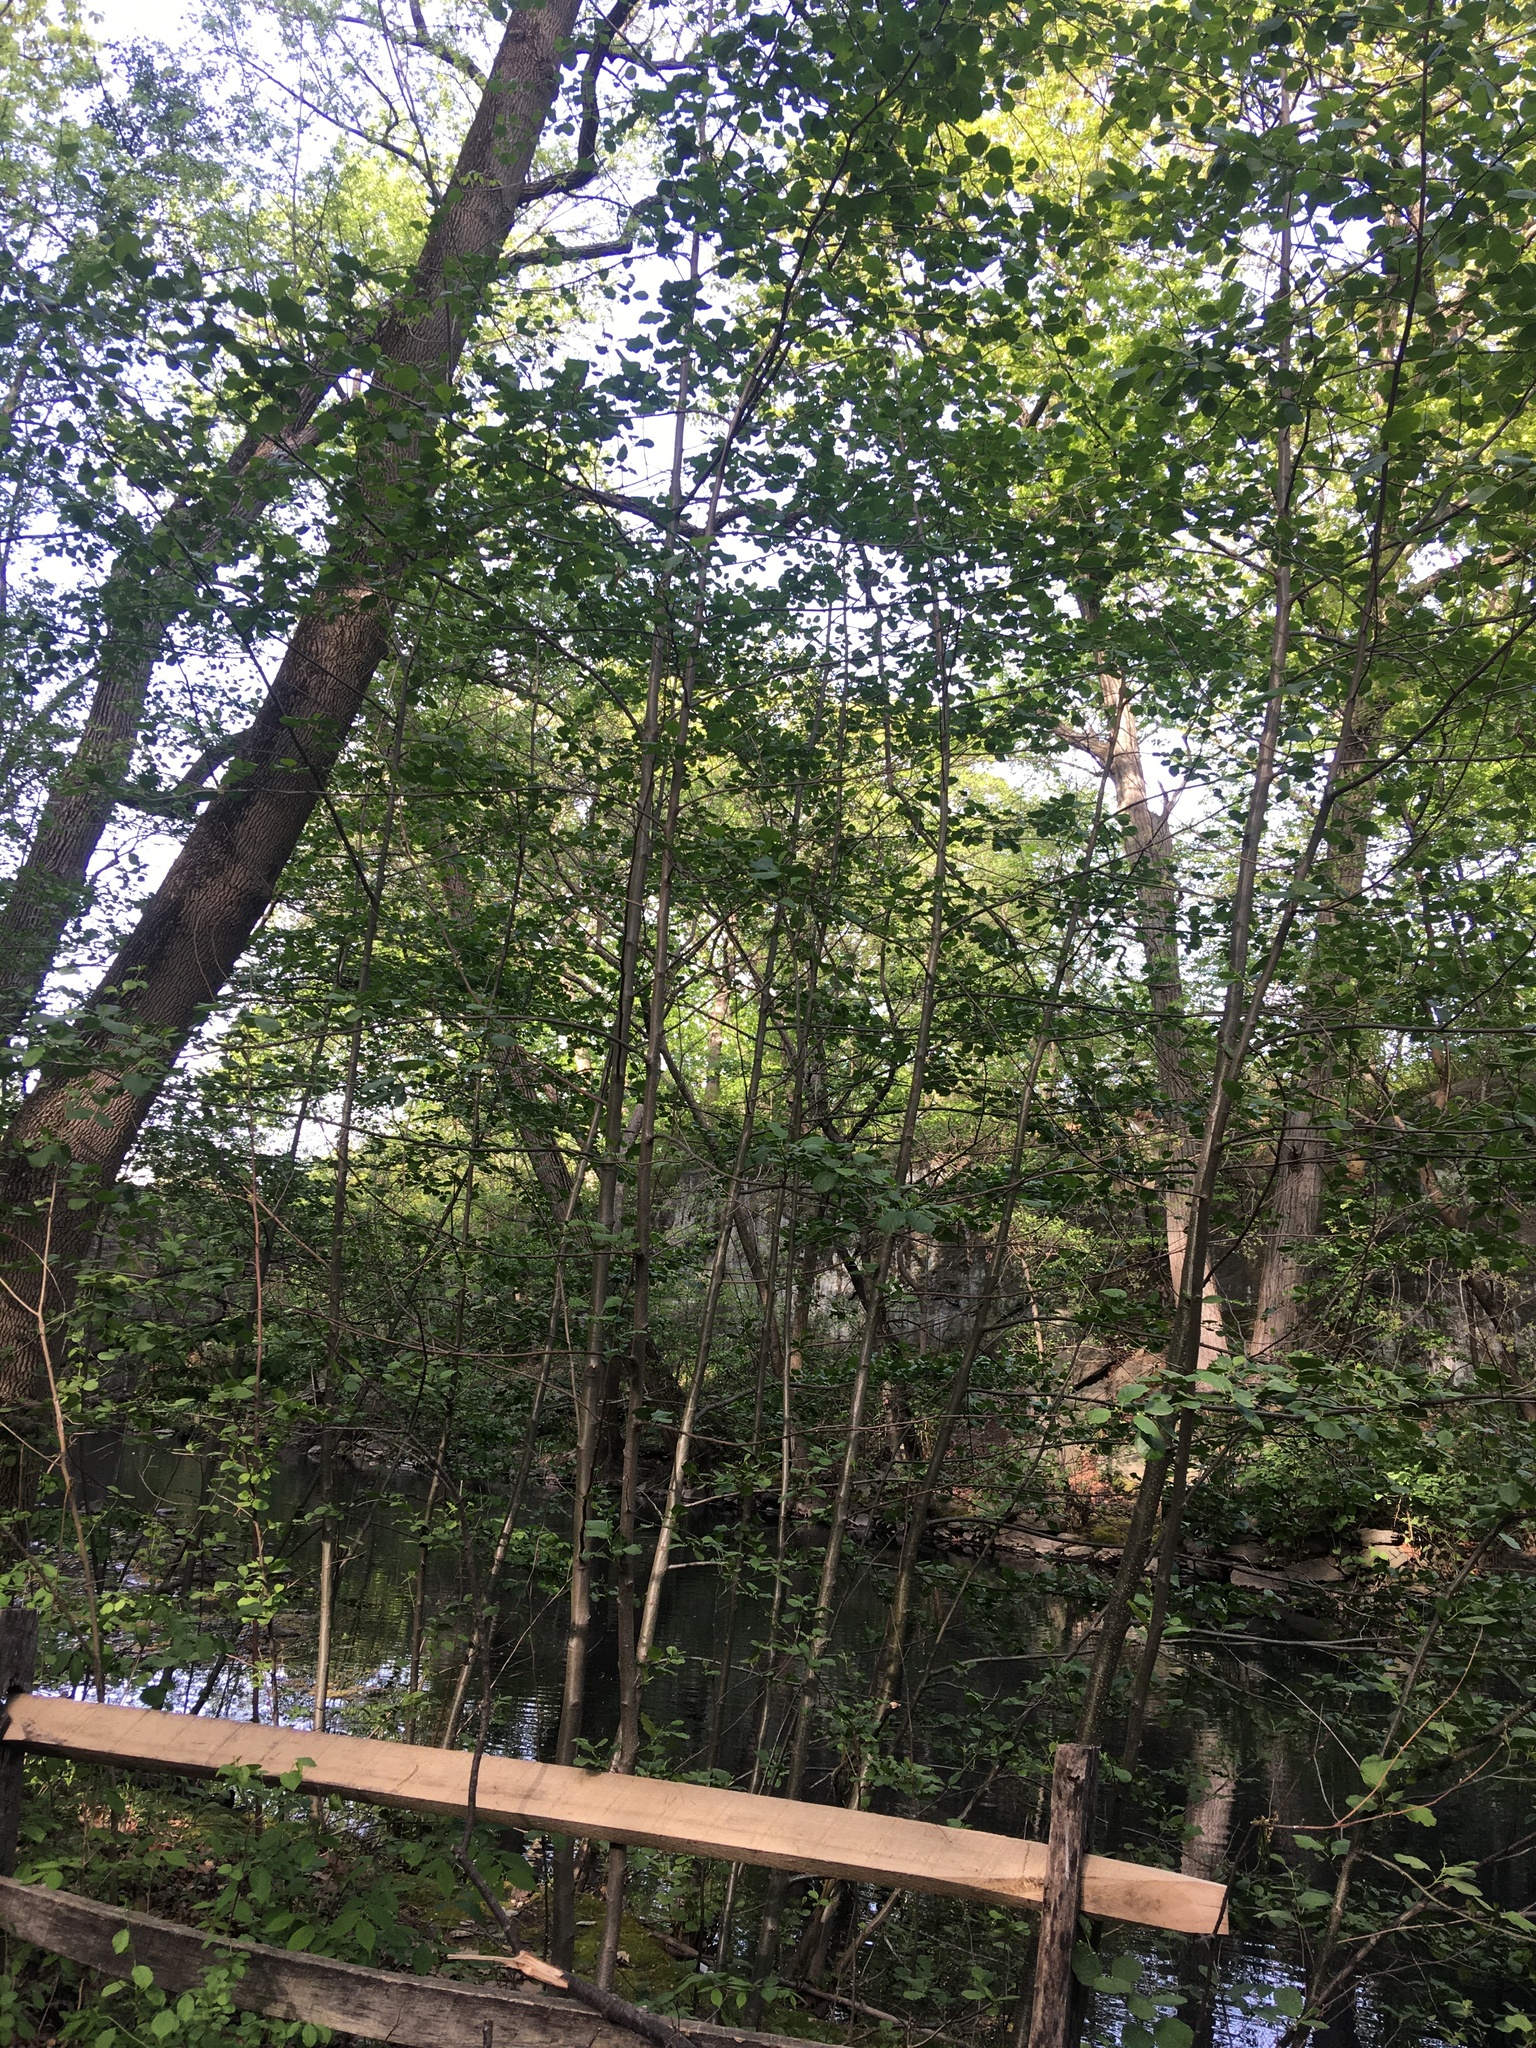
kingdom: Plantae
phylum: Tracheophyta
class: Magnoliopsida
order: Fagales
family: Betulaceae
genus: Alnus
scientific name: Alnus glutinosa
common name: Black alder
